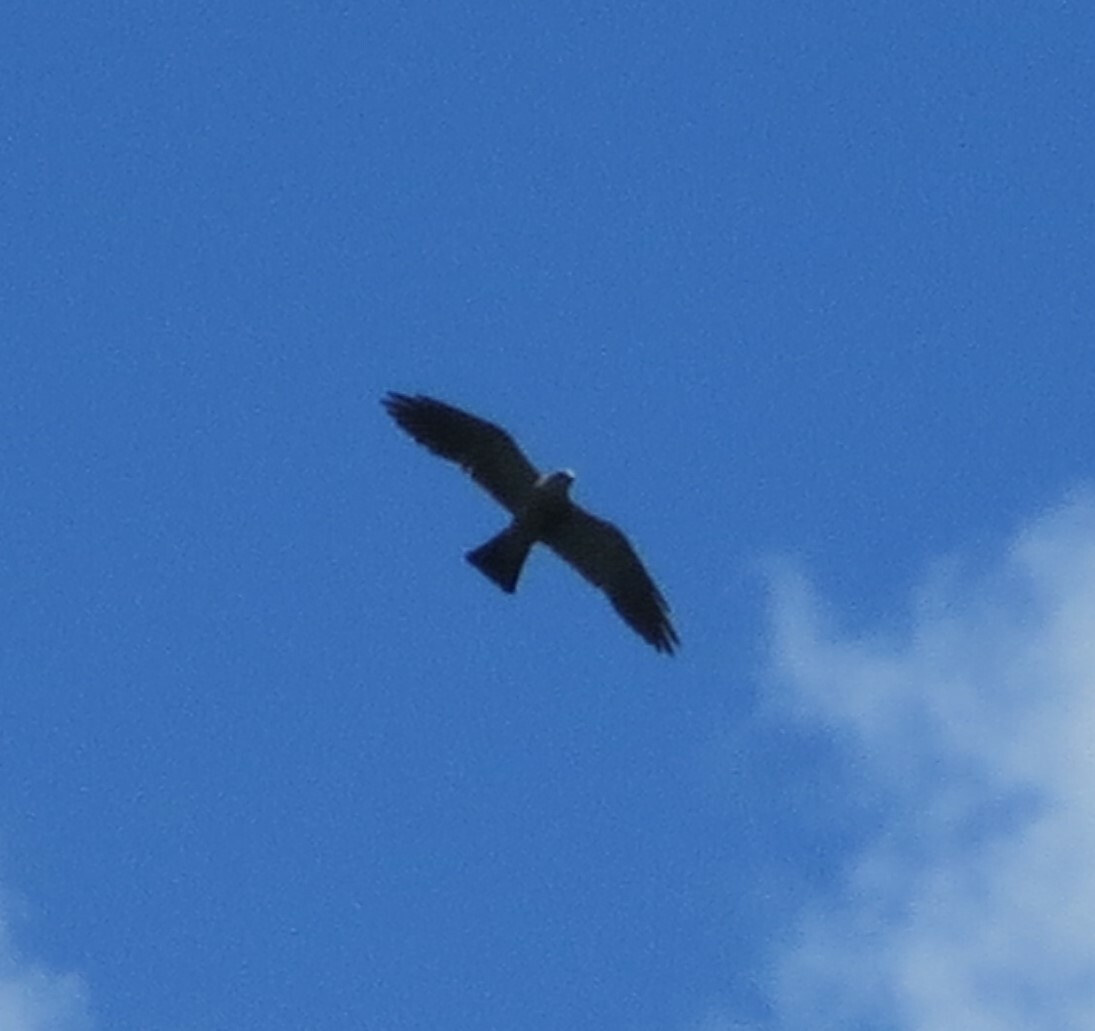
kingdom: Animalia
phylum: Chordata
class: Aves
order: Accipitriformes
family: Accipitridae
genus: Ictinia
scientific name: Ictinia mississippiensis
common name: Mississippi kite
